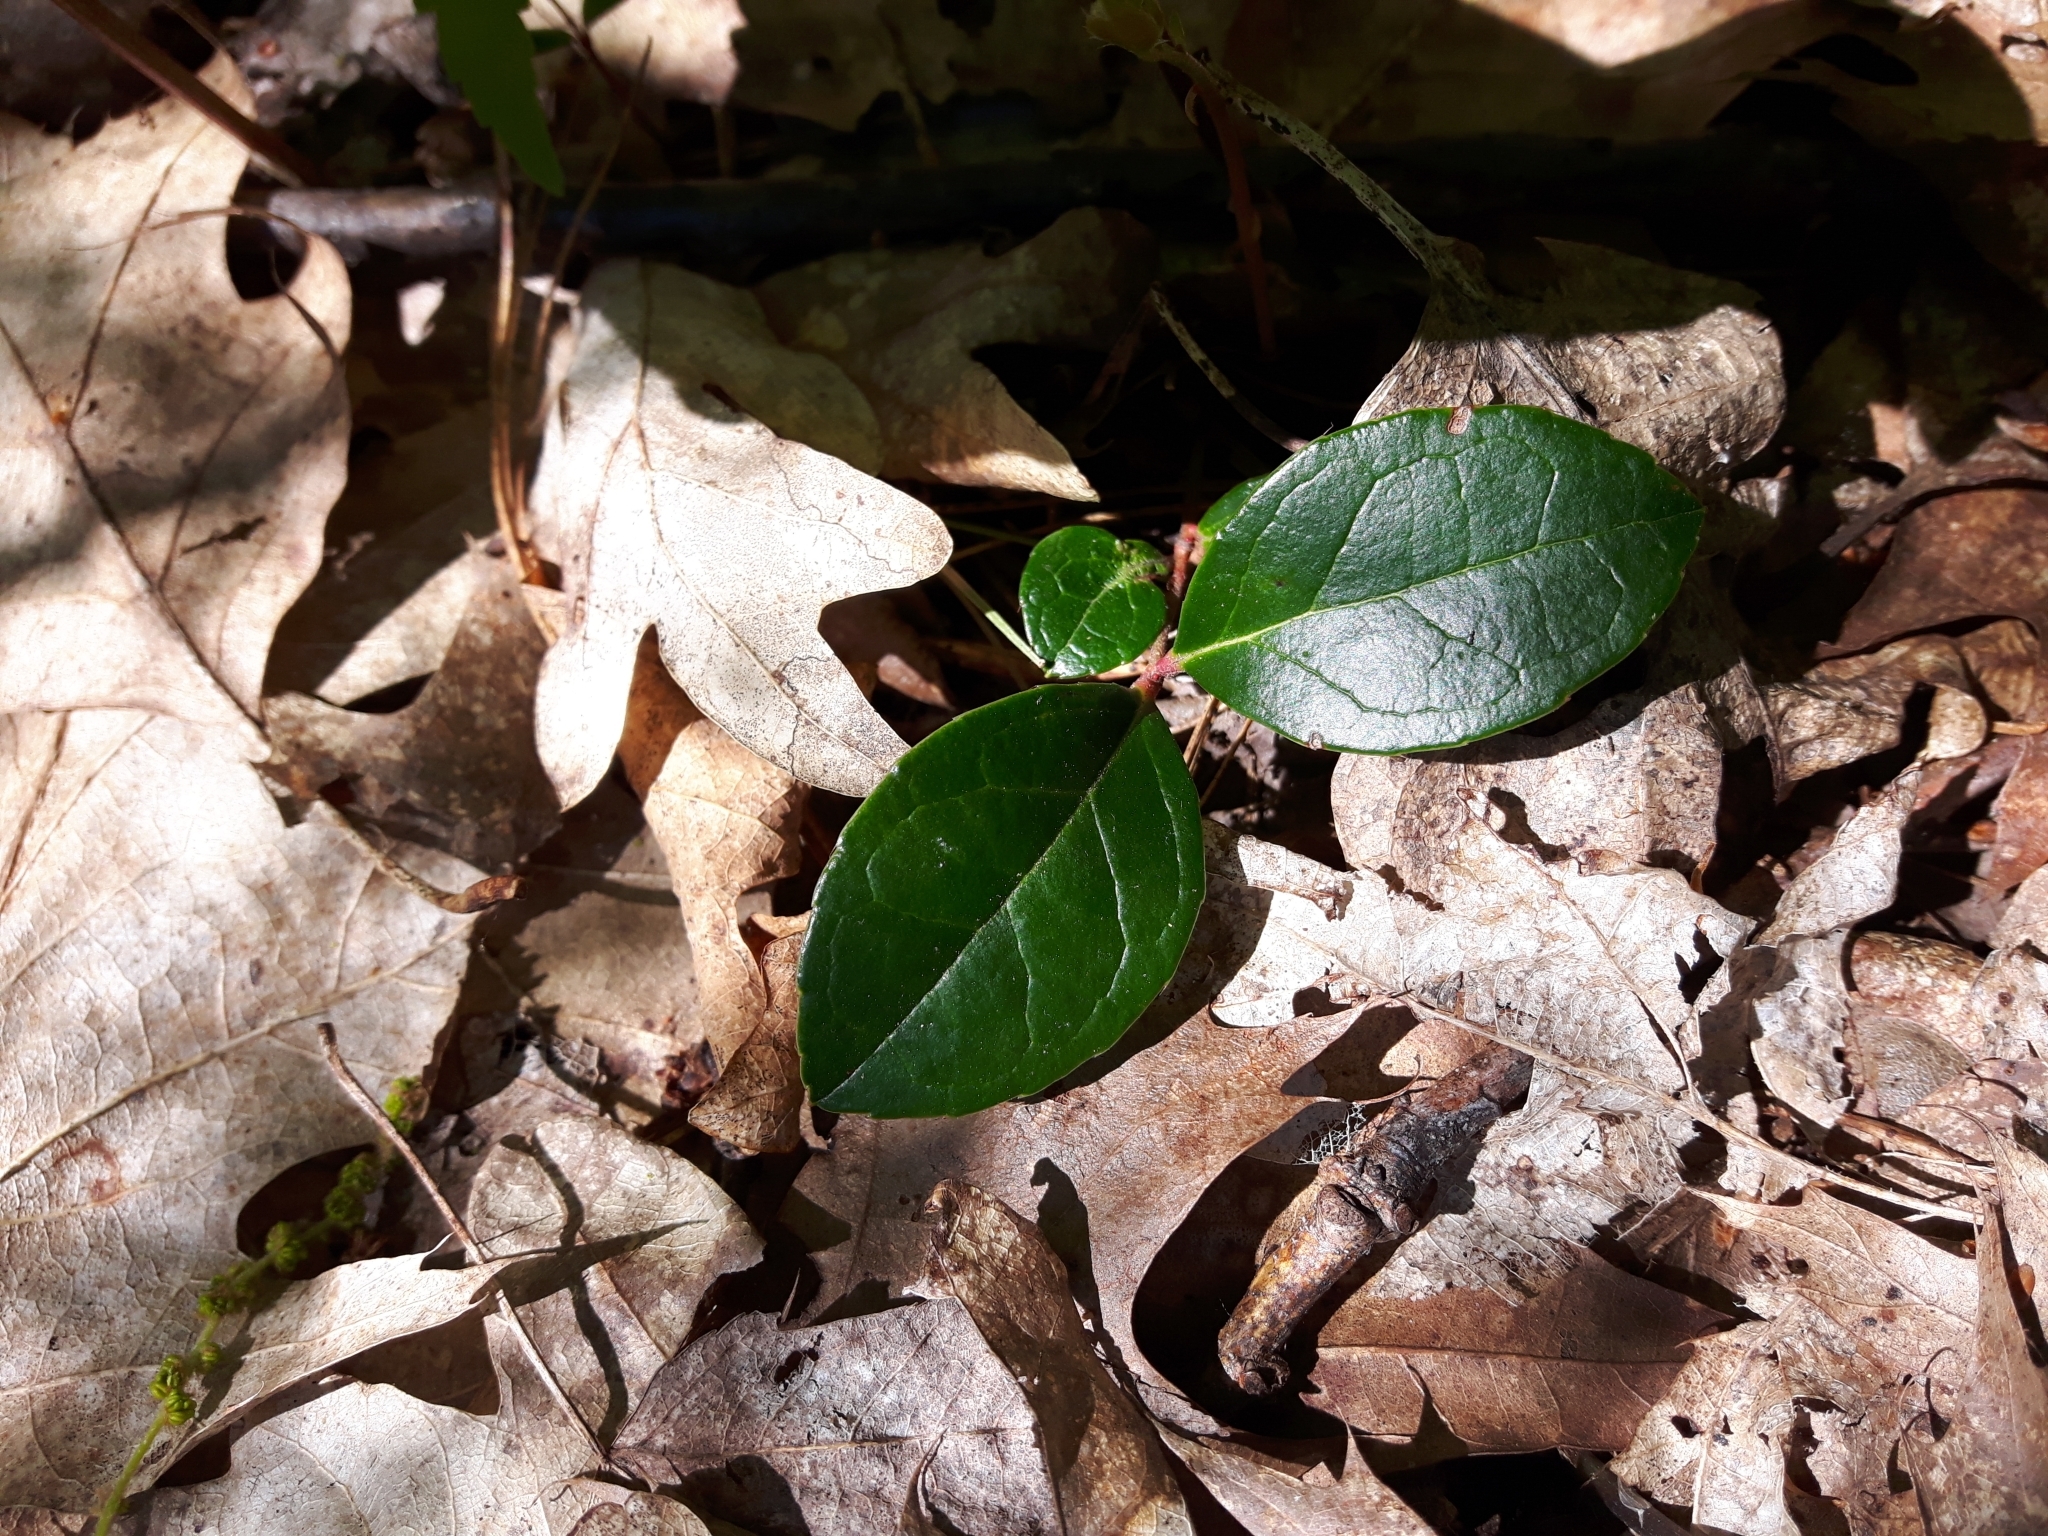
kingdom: Plantae
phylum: Tracheophyta
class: Magnoliopsida
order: Ericales
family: Ericaceae
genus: Gaultheria
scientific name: Gaultheria procumbens
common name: Checkerberry
